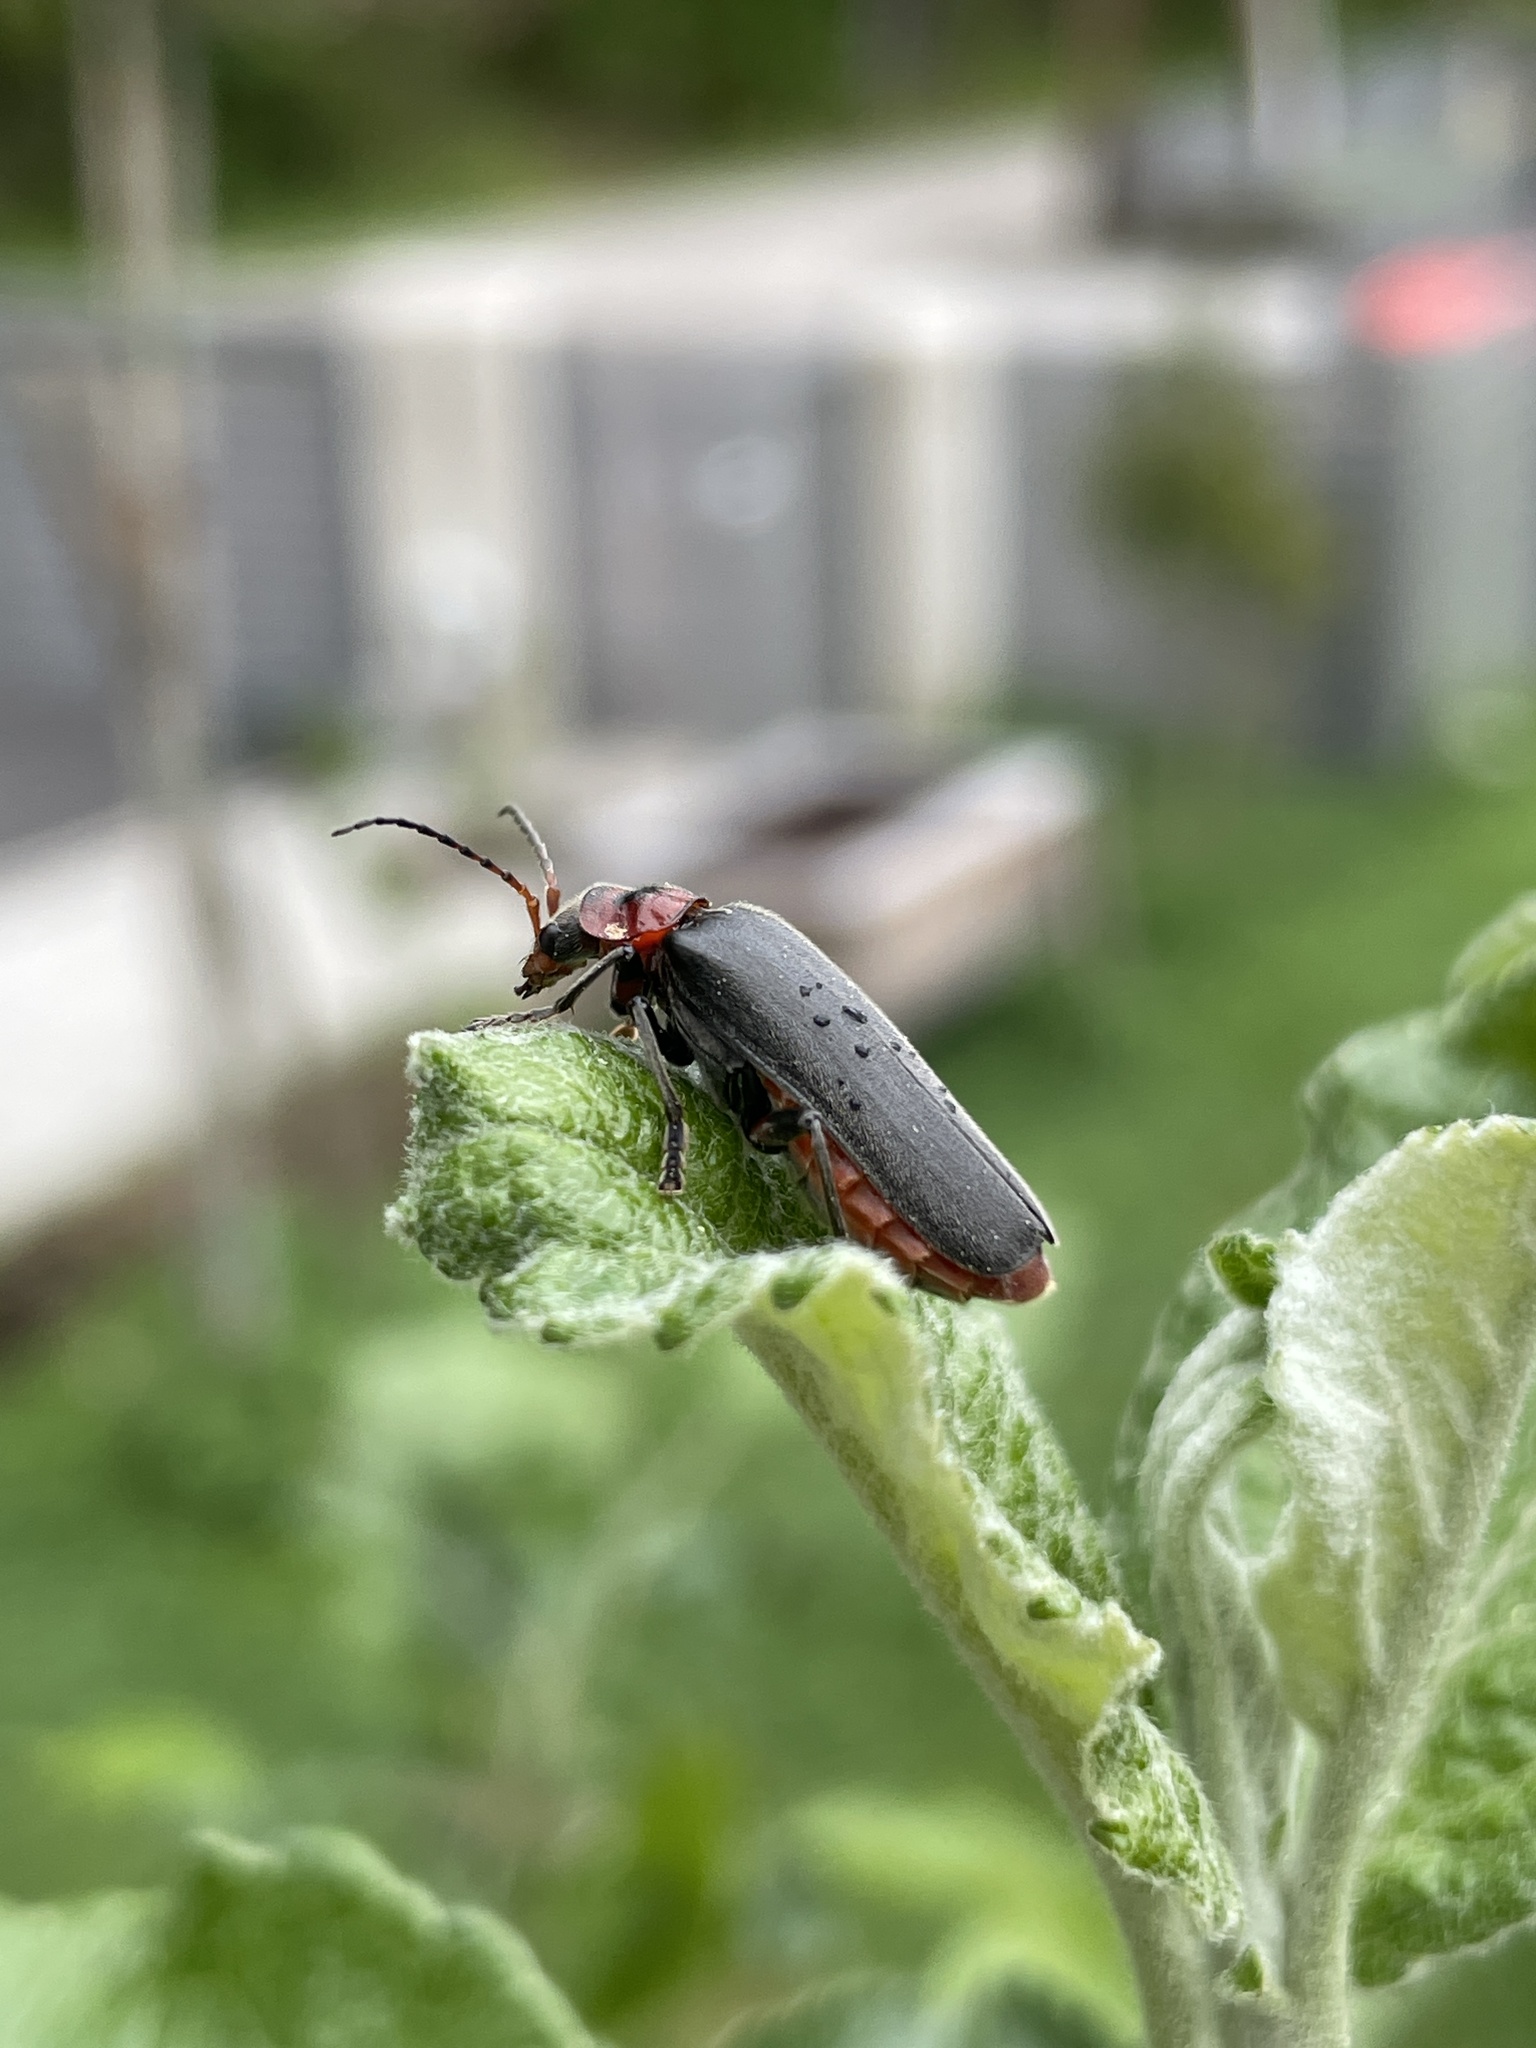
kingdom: Animalia
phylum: Arthropoda
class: Insecta
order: Coleoptera
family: Cantharidae
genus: Cantharis
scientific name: Cantharis rustica
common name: Soldier beetle
